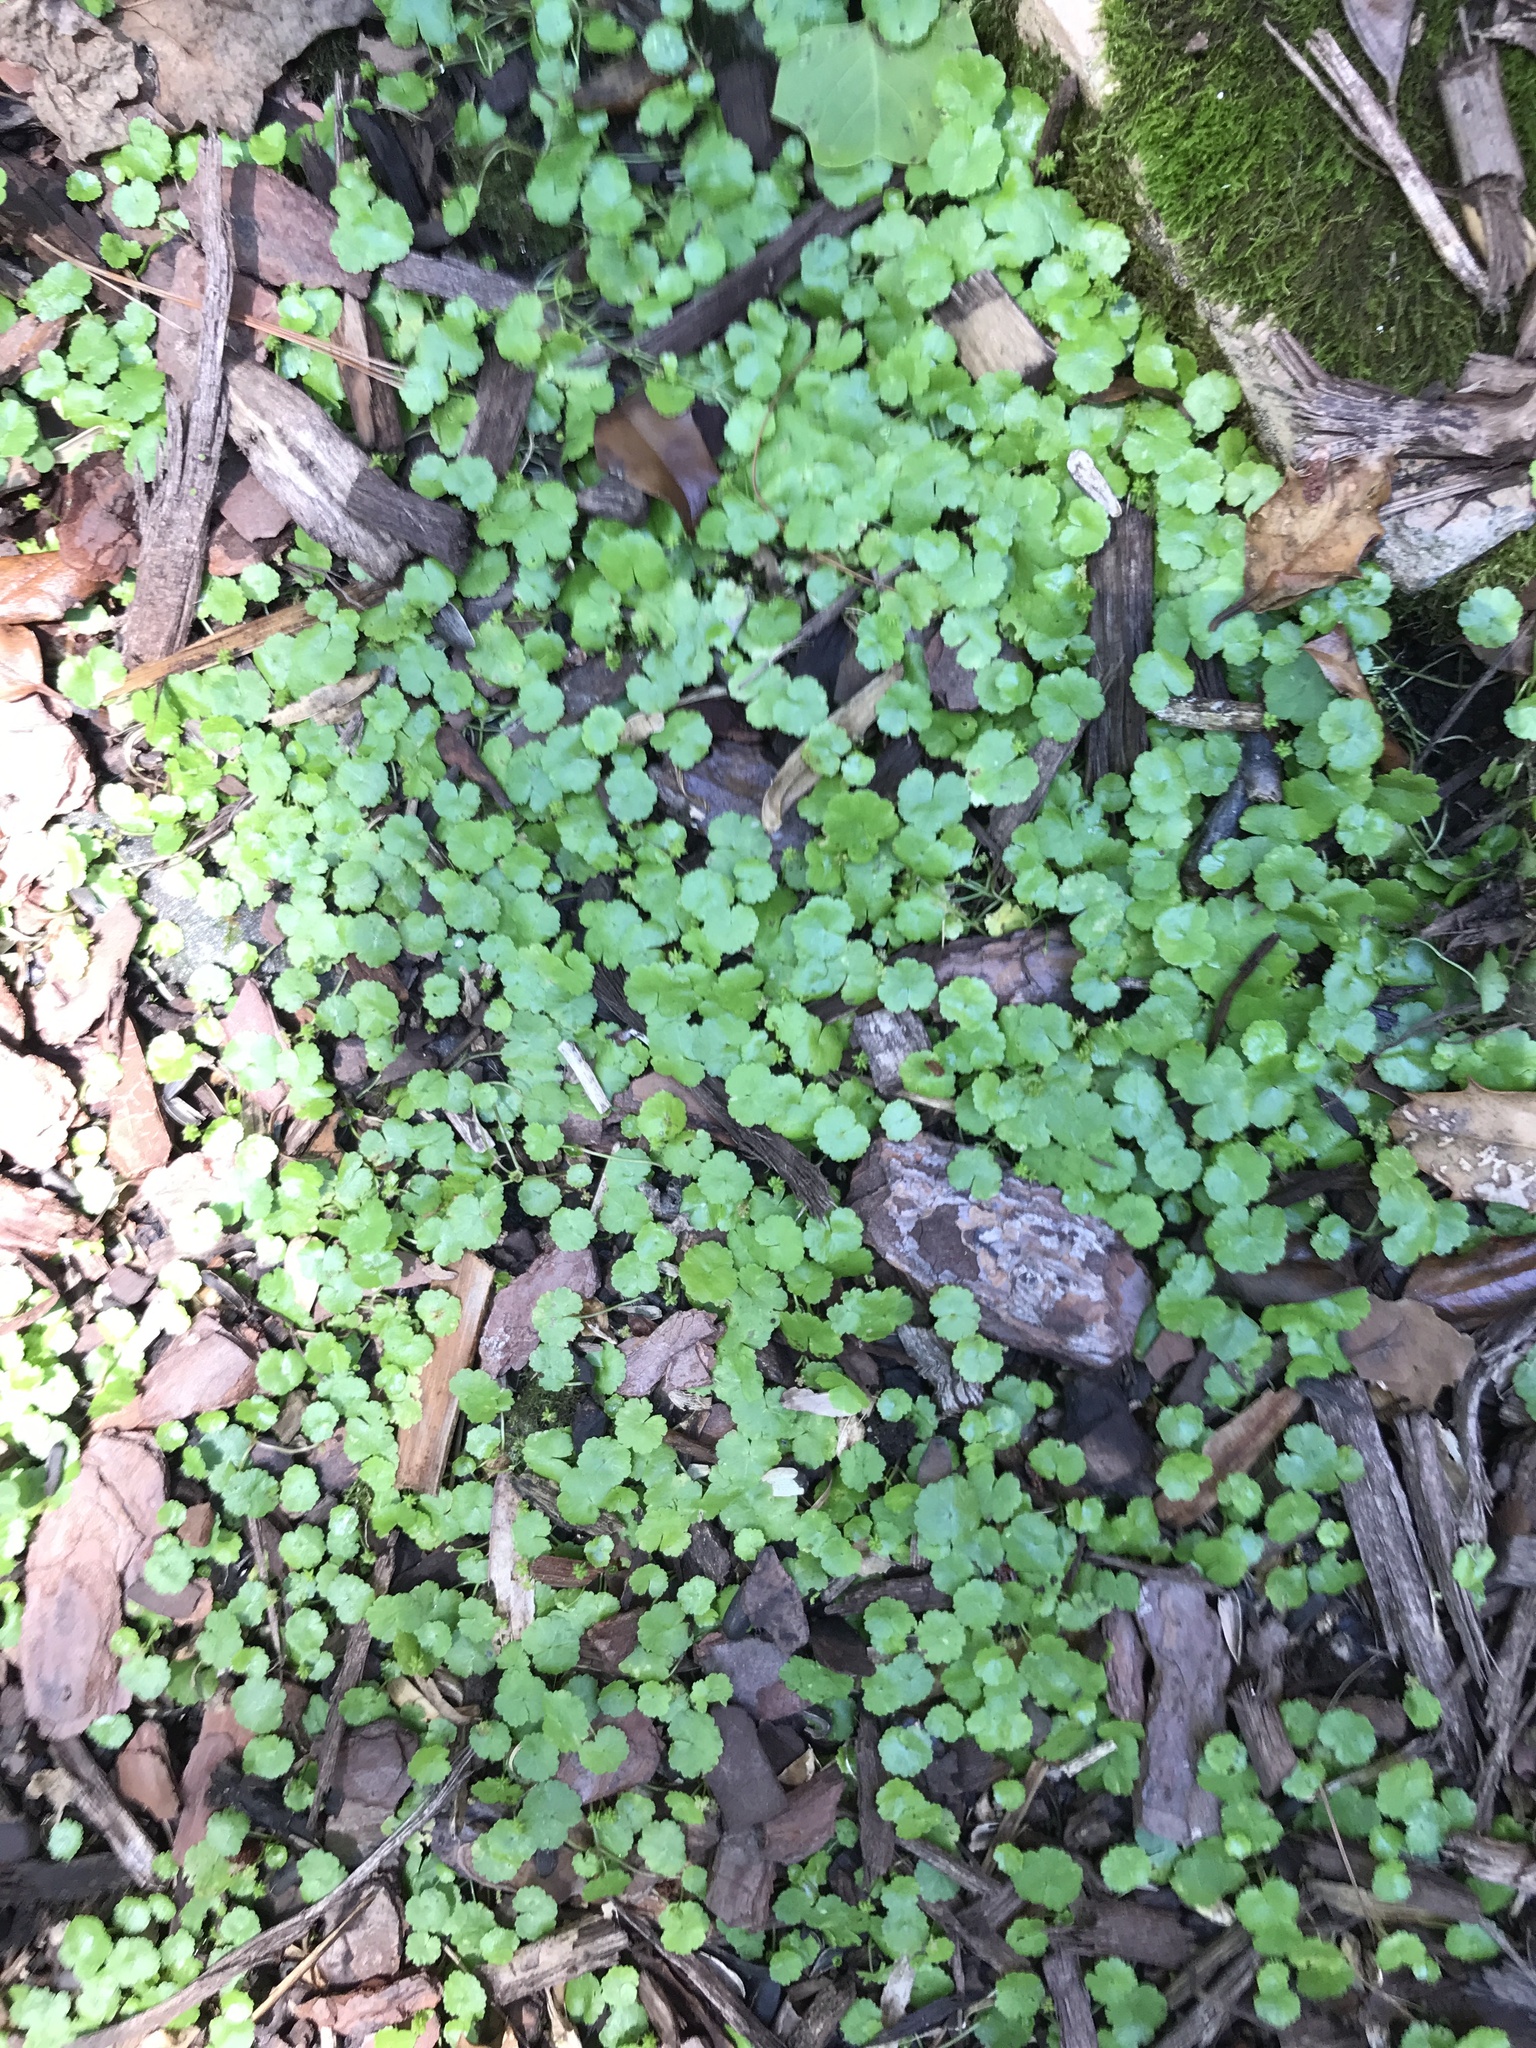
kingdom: Plantae
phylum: Tracheophyta
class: Magnoliopsida
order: Apiales
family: Araliaceae
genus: Hydrocotyle
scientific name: Hydrocotyle sibthorpioides
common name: Lawn marshpennywort
